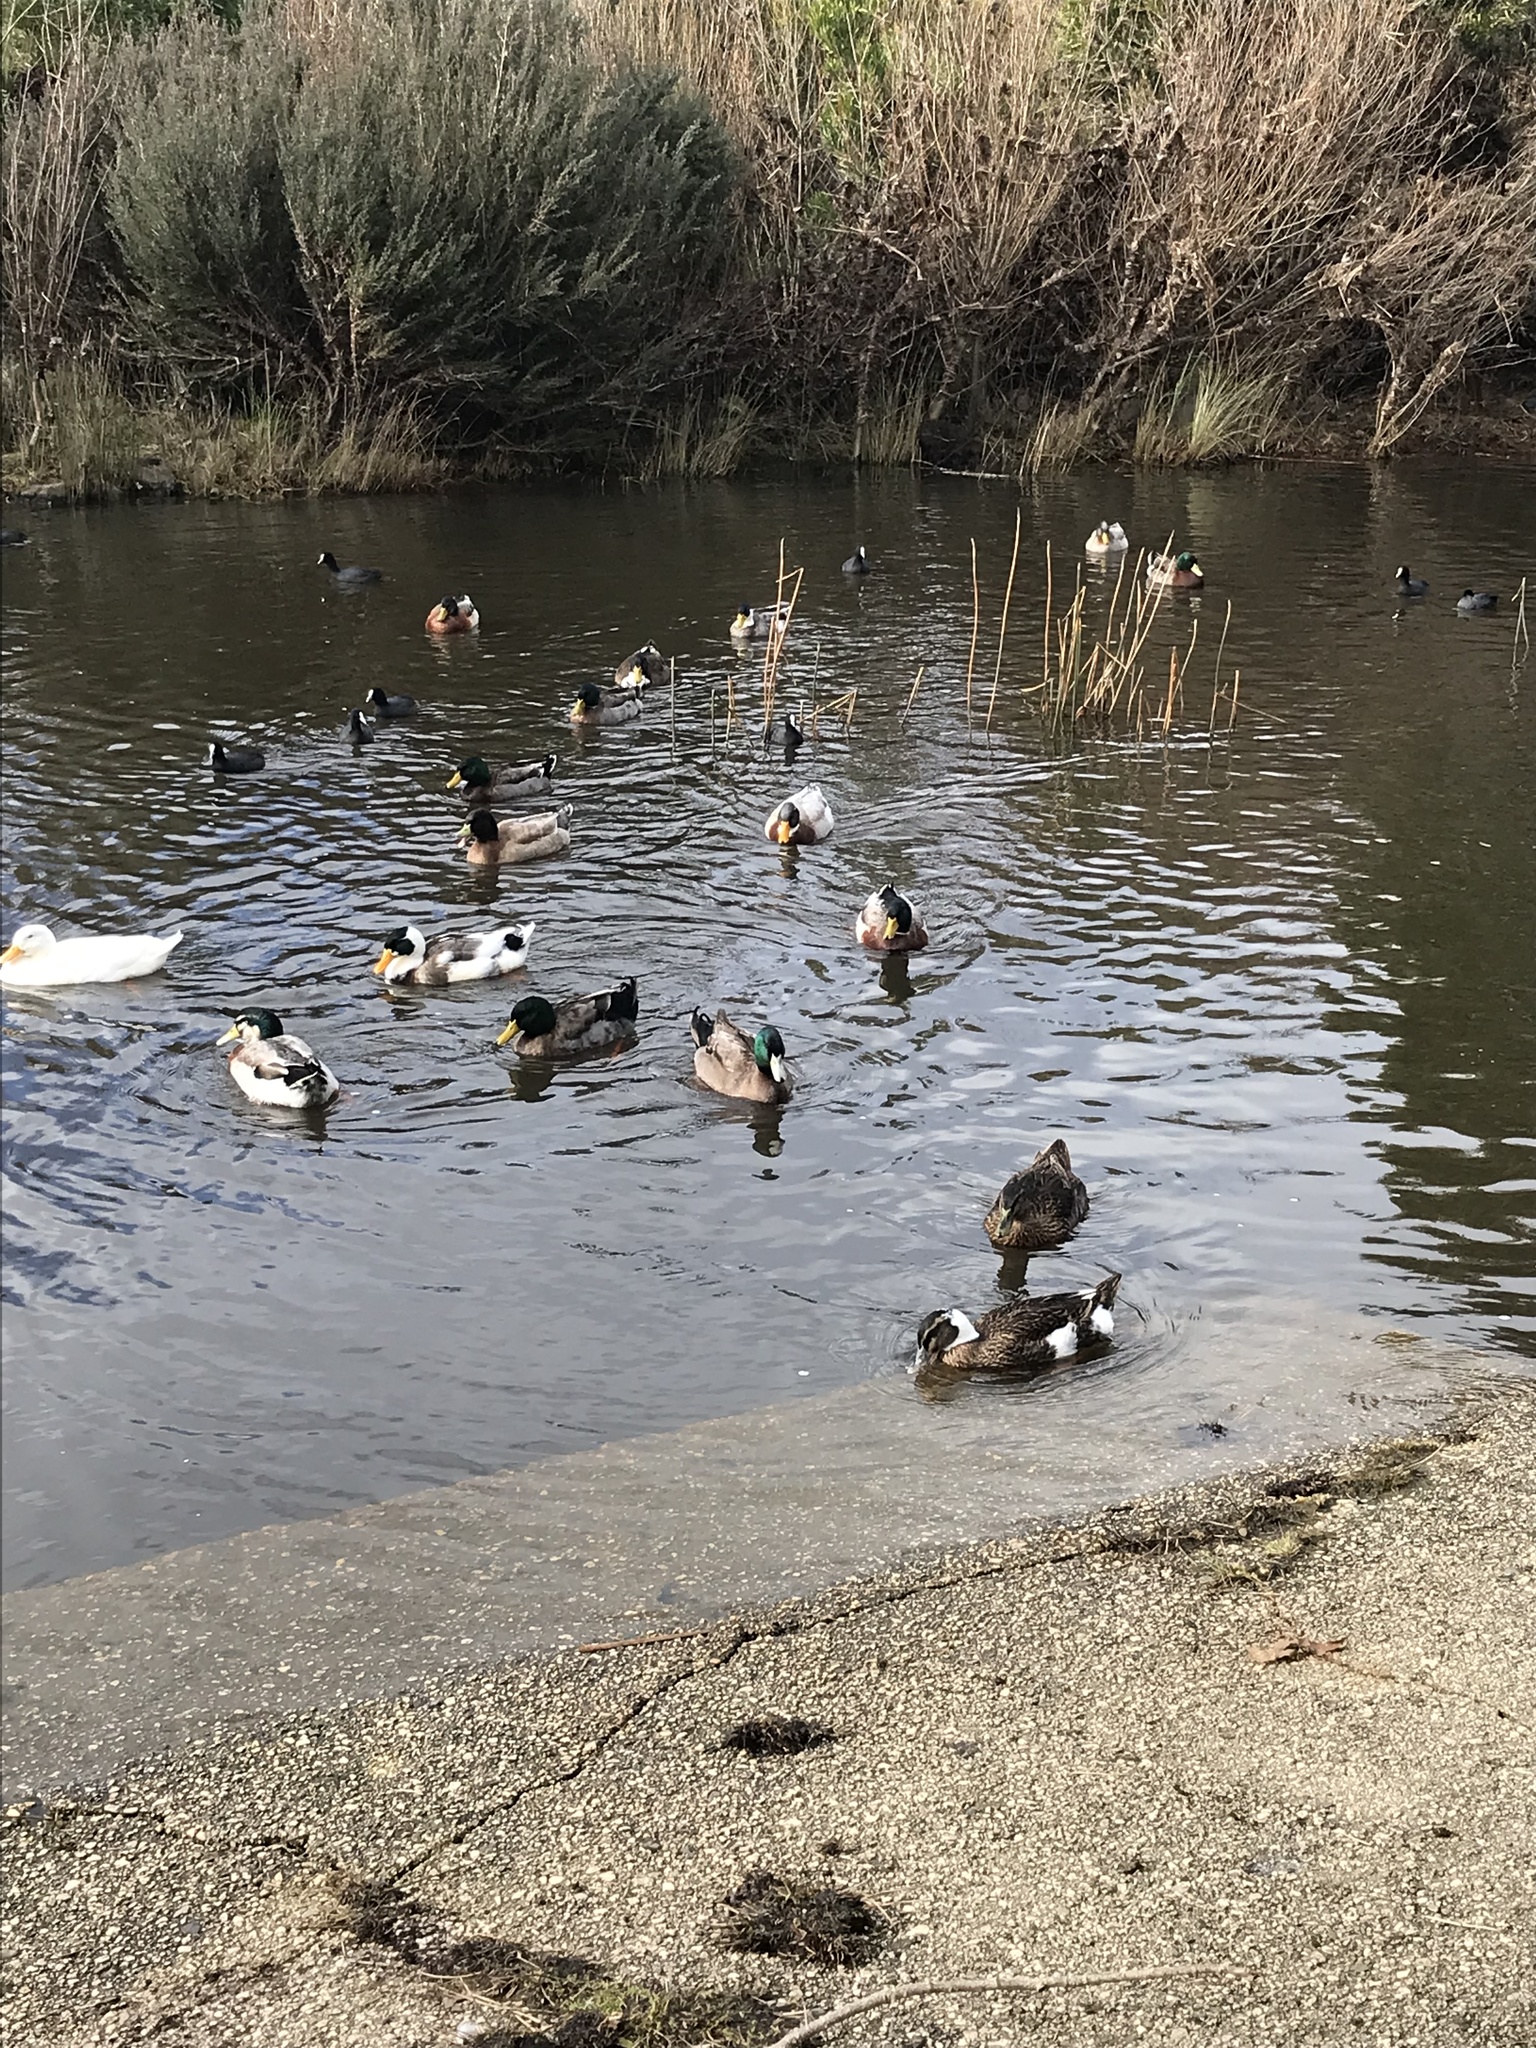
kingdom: Animalia
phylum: Chordata
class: Aves
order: Anseriformes
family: Anatidae
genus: Anas
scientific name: Anas platyrhynchos
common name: Mallard
